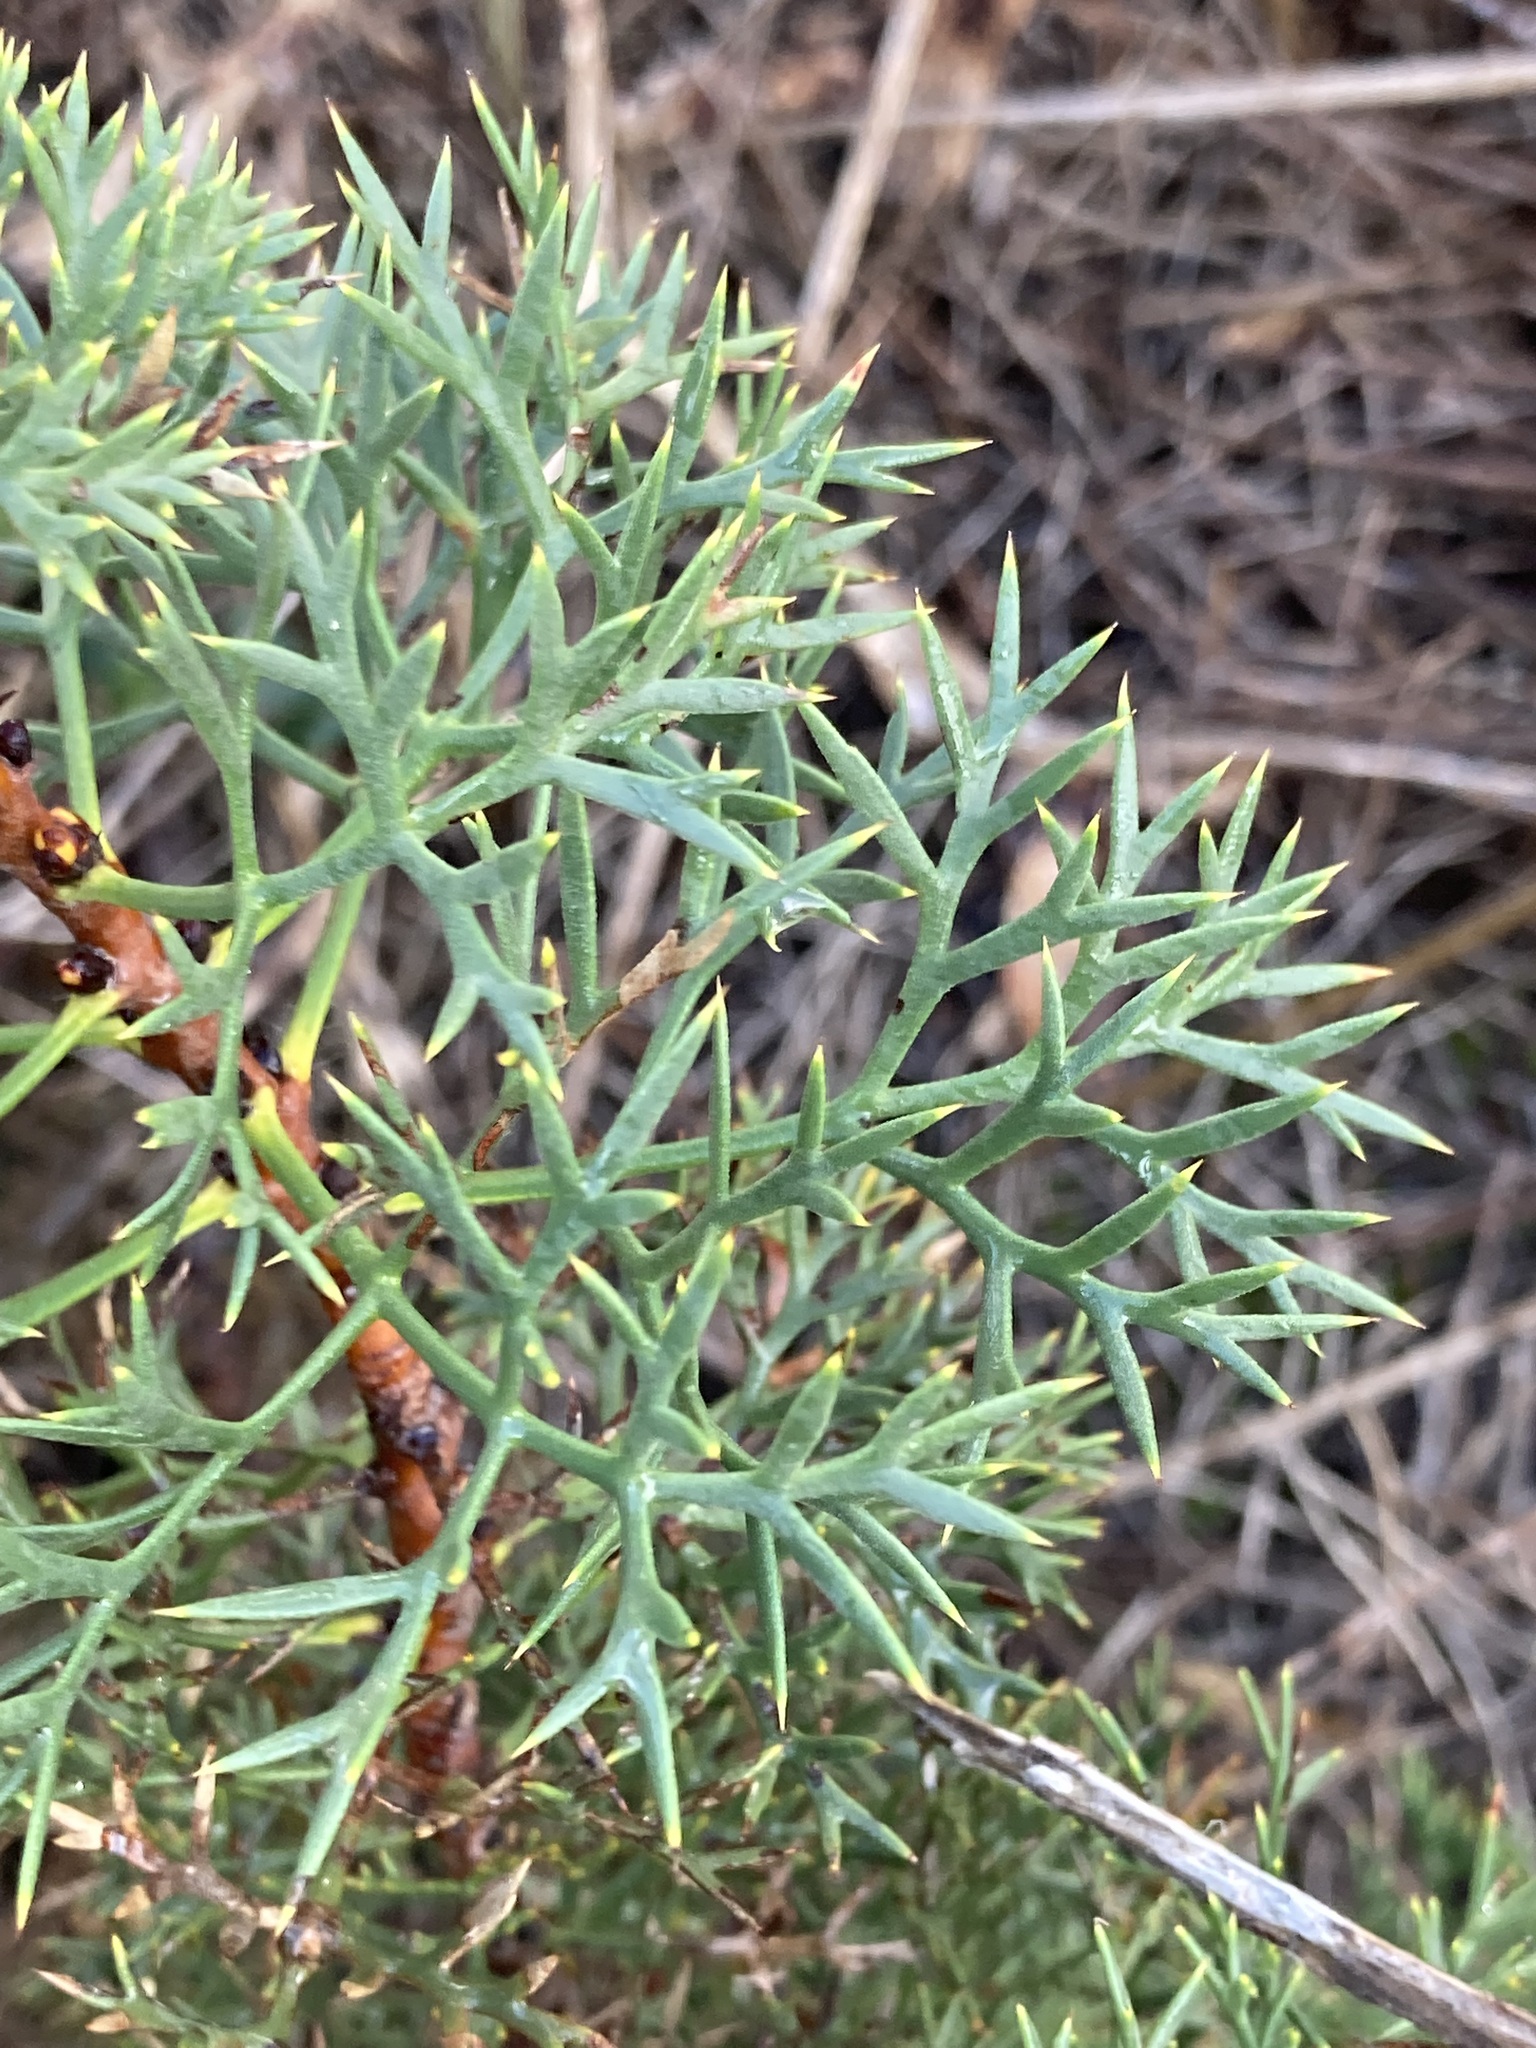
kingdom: Plantae
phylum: Tracheophyta
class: Magnoliopsida
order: Proteales
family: Proteaceae
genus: Petrophile
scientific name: Petrophile striata
